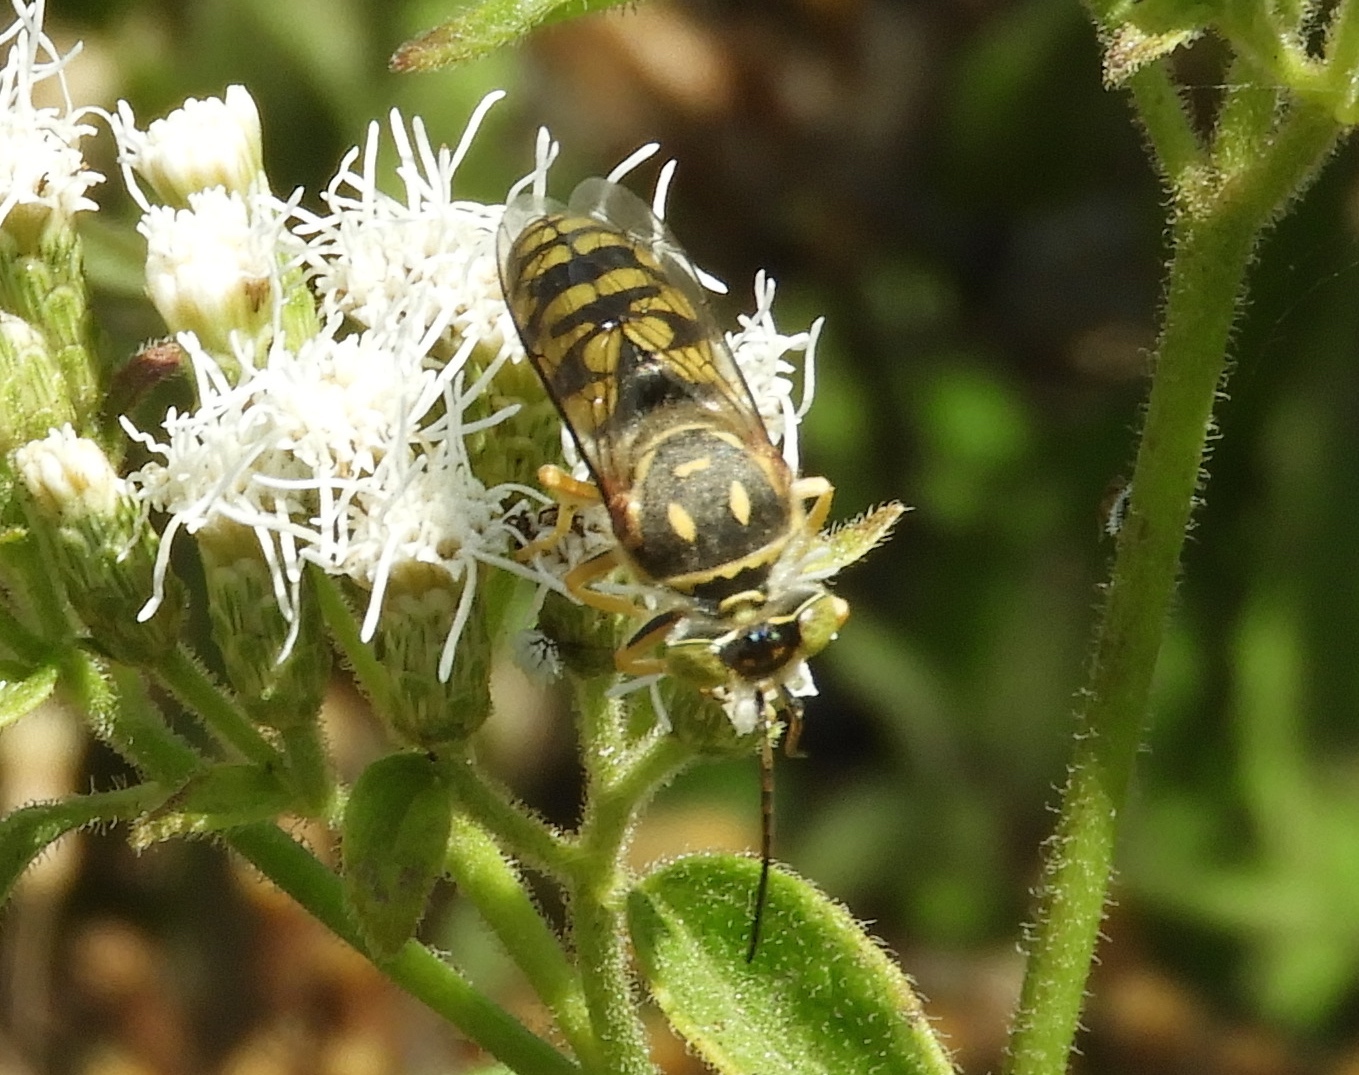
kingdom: Animalia
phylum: Arthropoda
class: Insecta
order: Hymenoptera
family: Crabronidae
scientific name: Crabronidae
